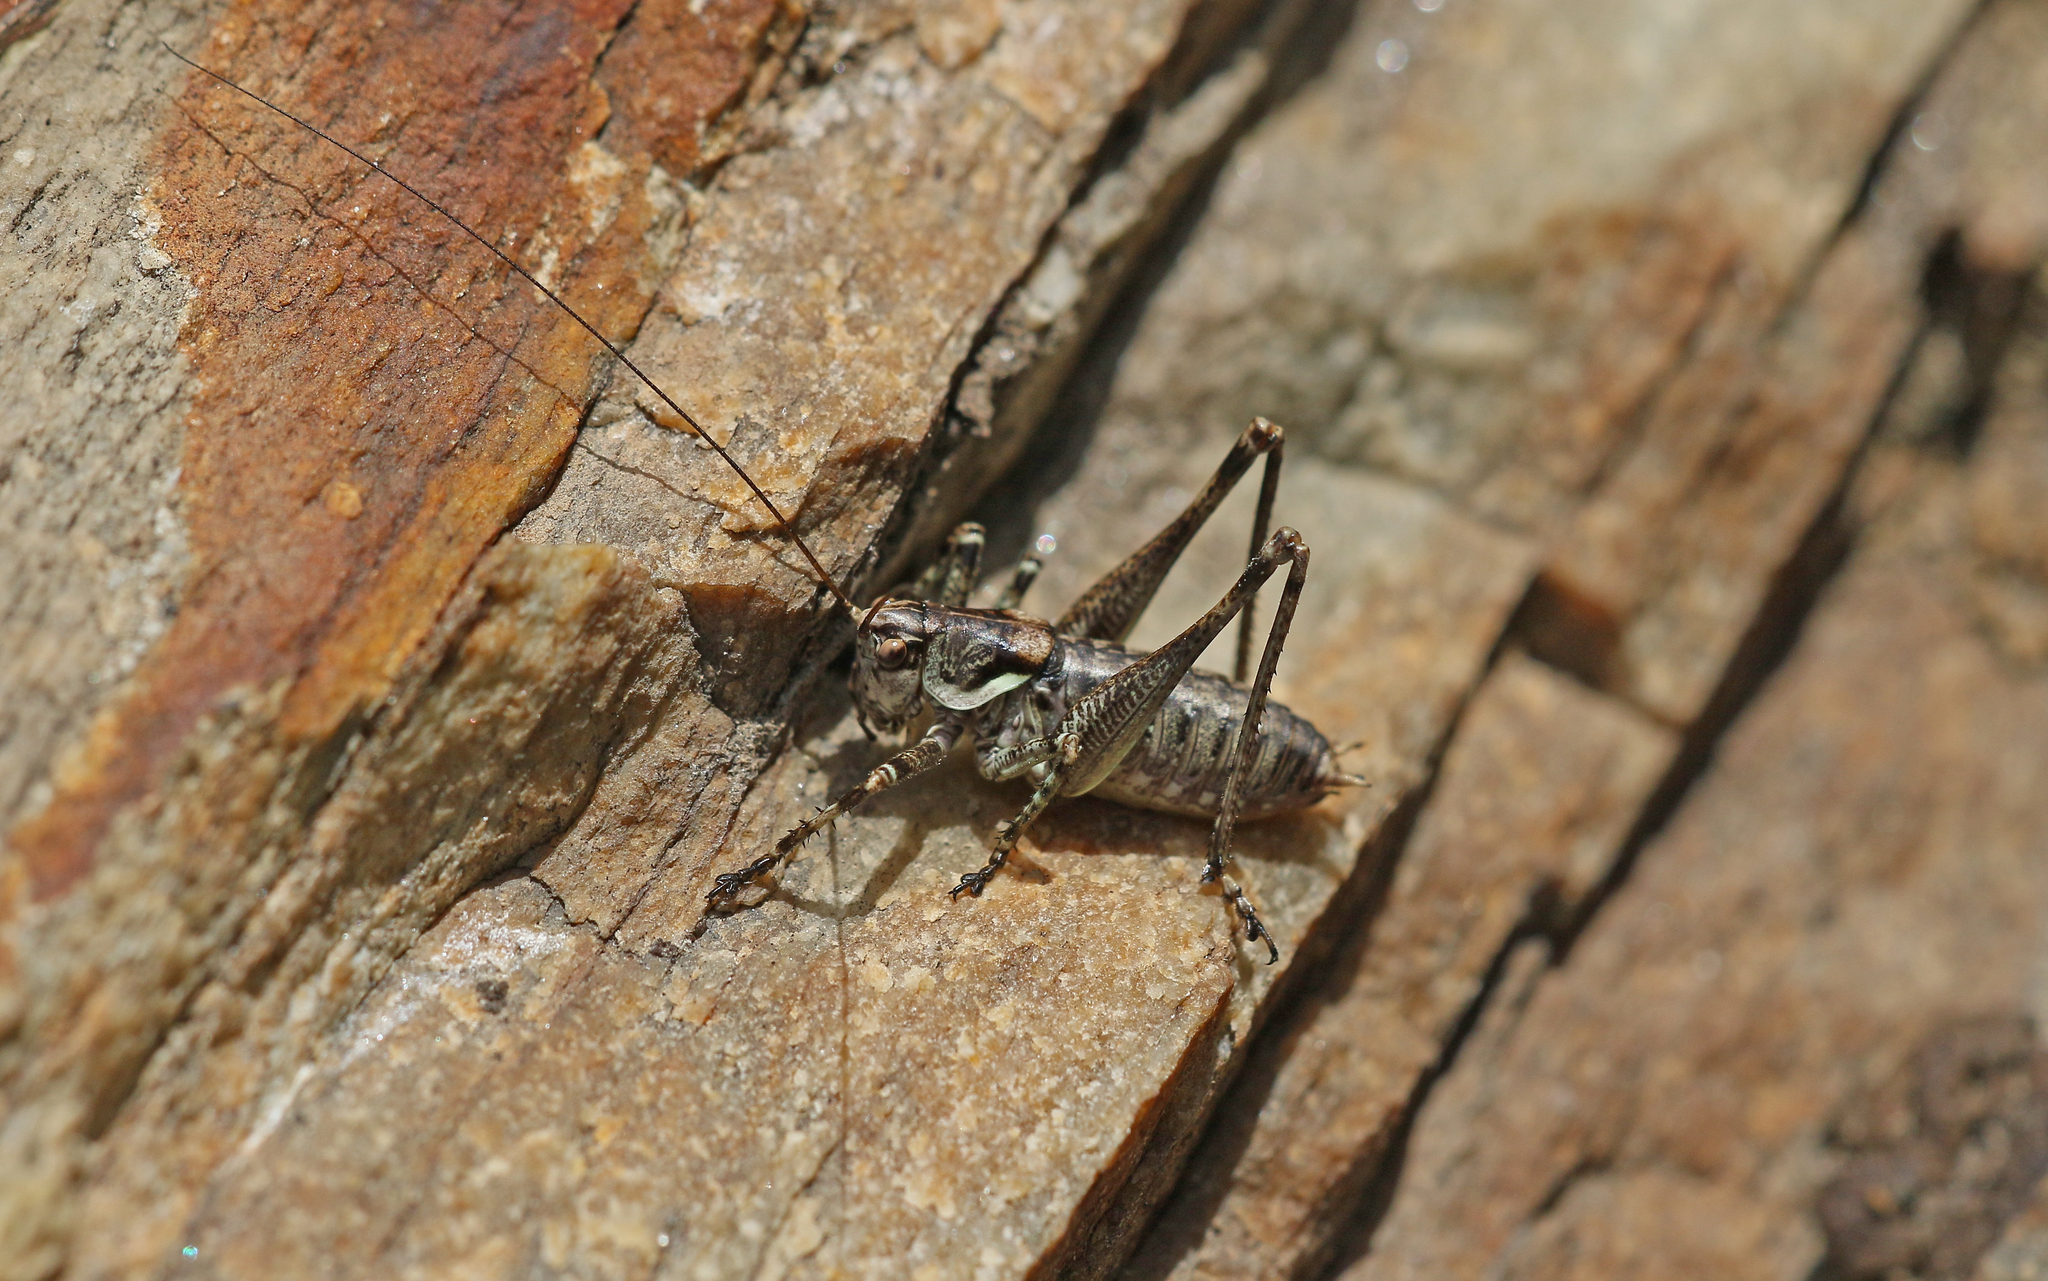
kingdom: Animalia
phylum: Arthropoda
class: Insecta
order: Orthoptera
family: Tettigoniidae
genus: Antaxius
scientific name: Antaxius pedestris
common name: Common mountain bush-cricket
